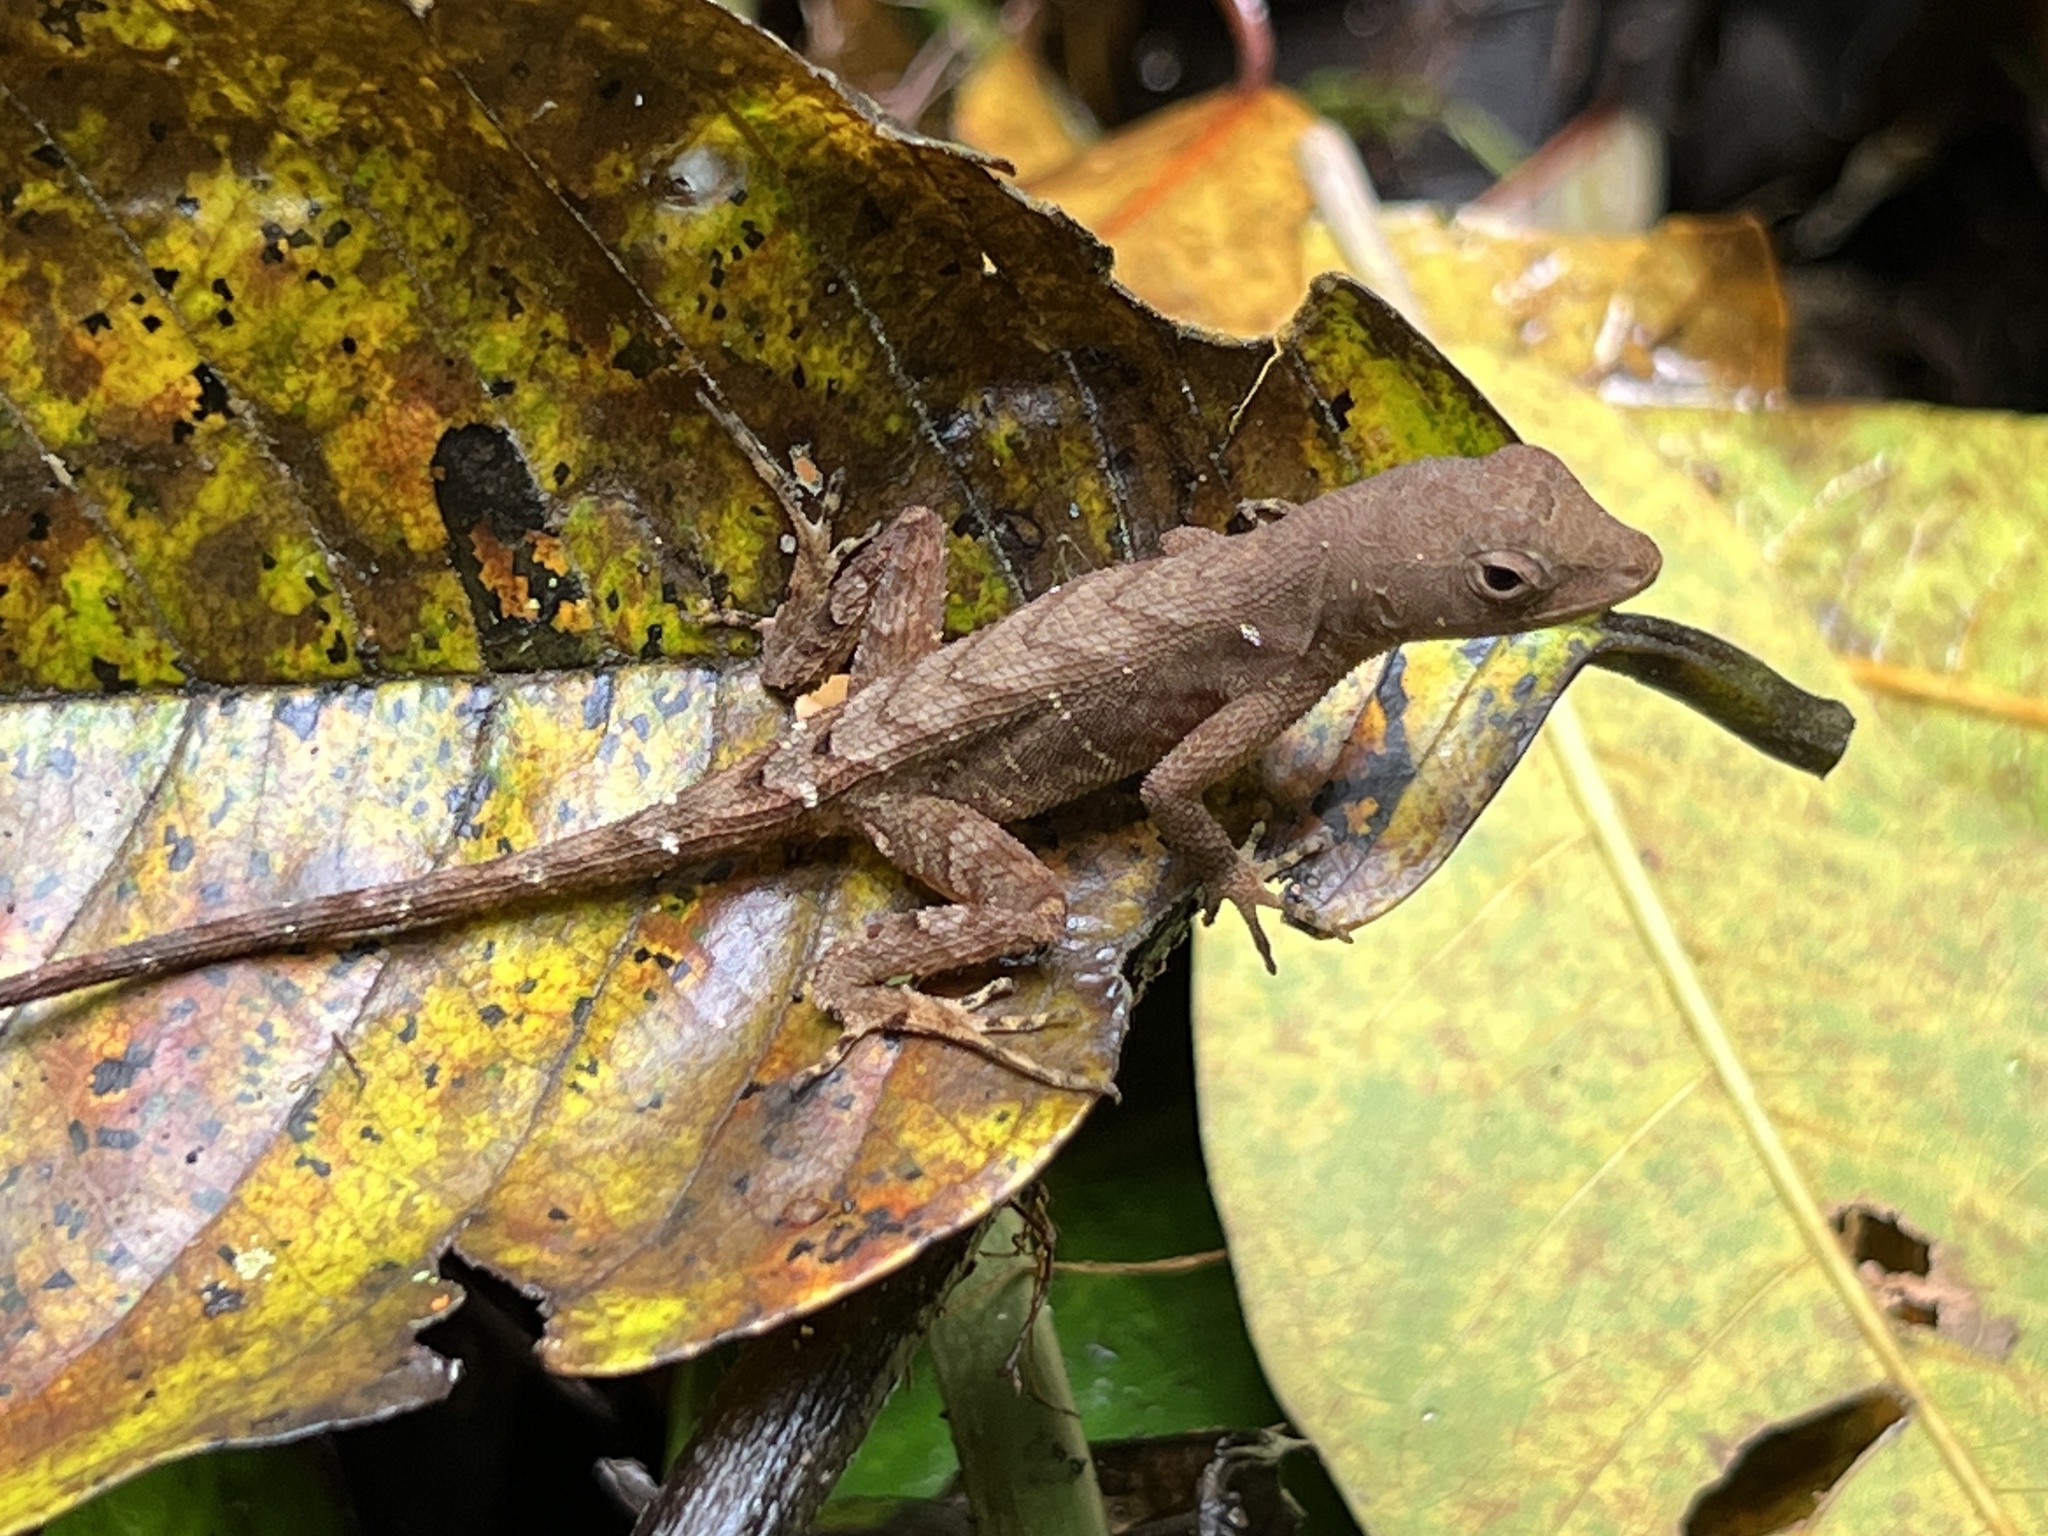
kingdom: Animalia
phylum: Chordata
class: Squamata
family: Dactyloidae
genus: Anolis
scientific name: Anolis wilsoni
